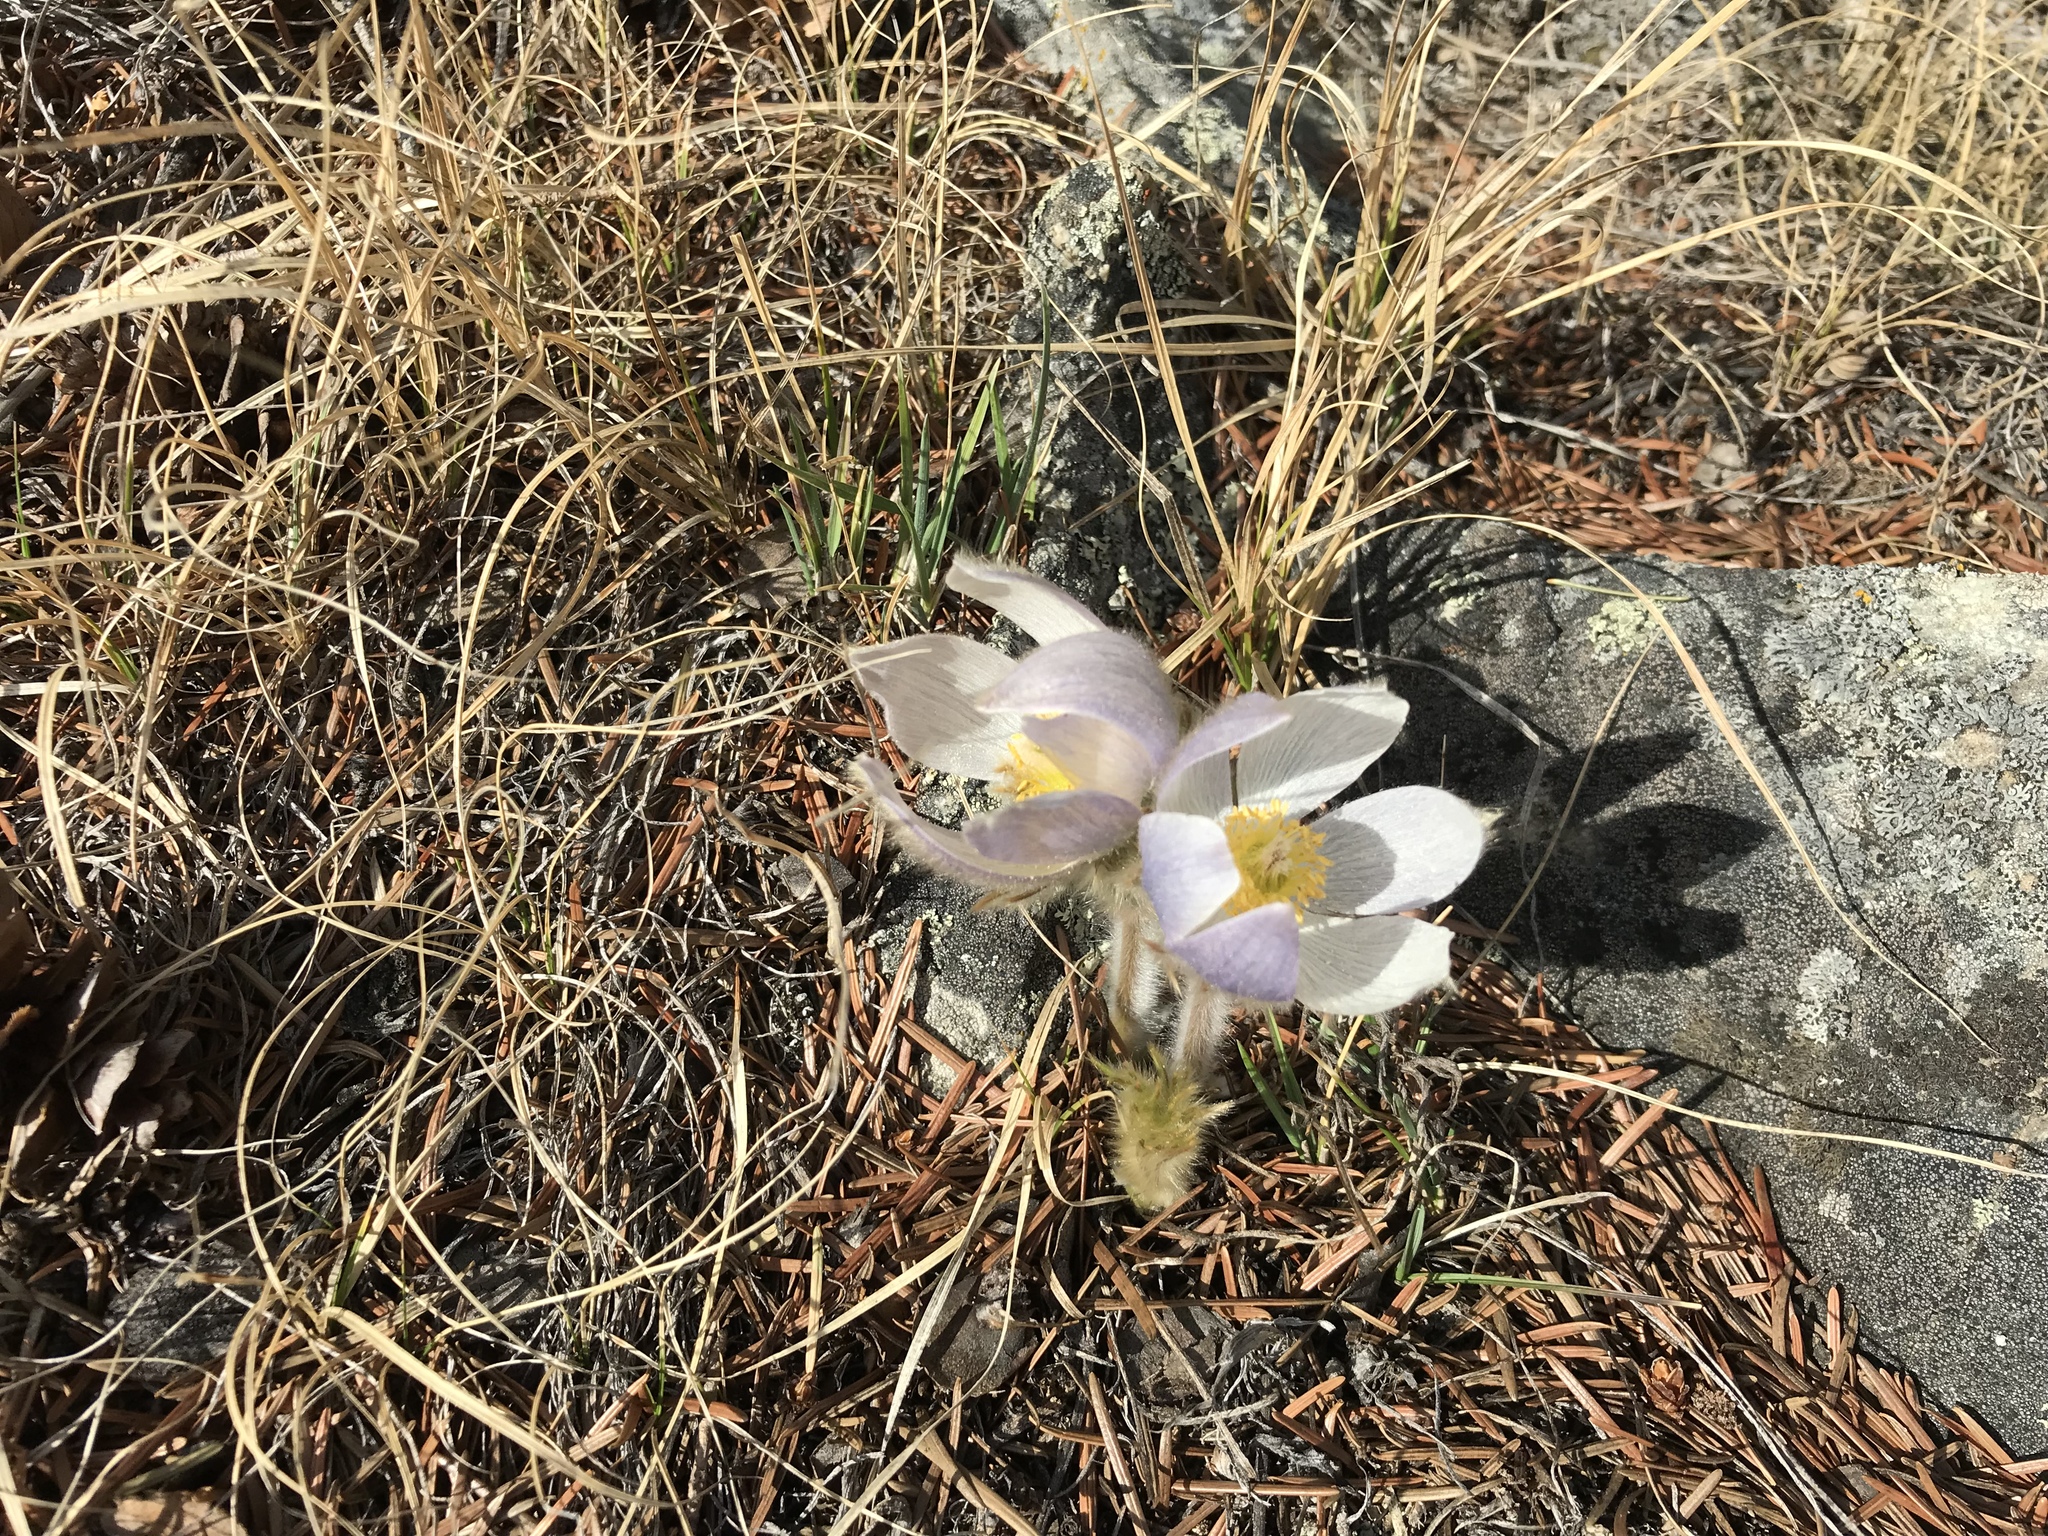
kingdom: Plantae
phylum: Tracheophyta
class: Magnoliopsida
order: Ranunculales
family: Ranunculaceae
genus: Pulsatilla
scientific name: Pulsatilla nuttalliana
